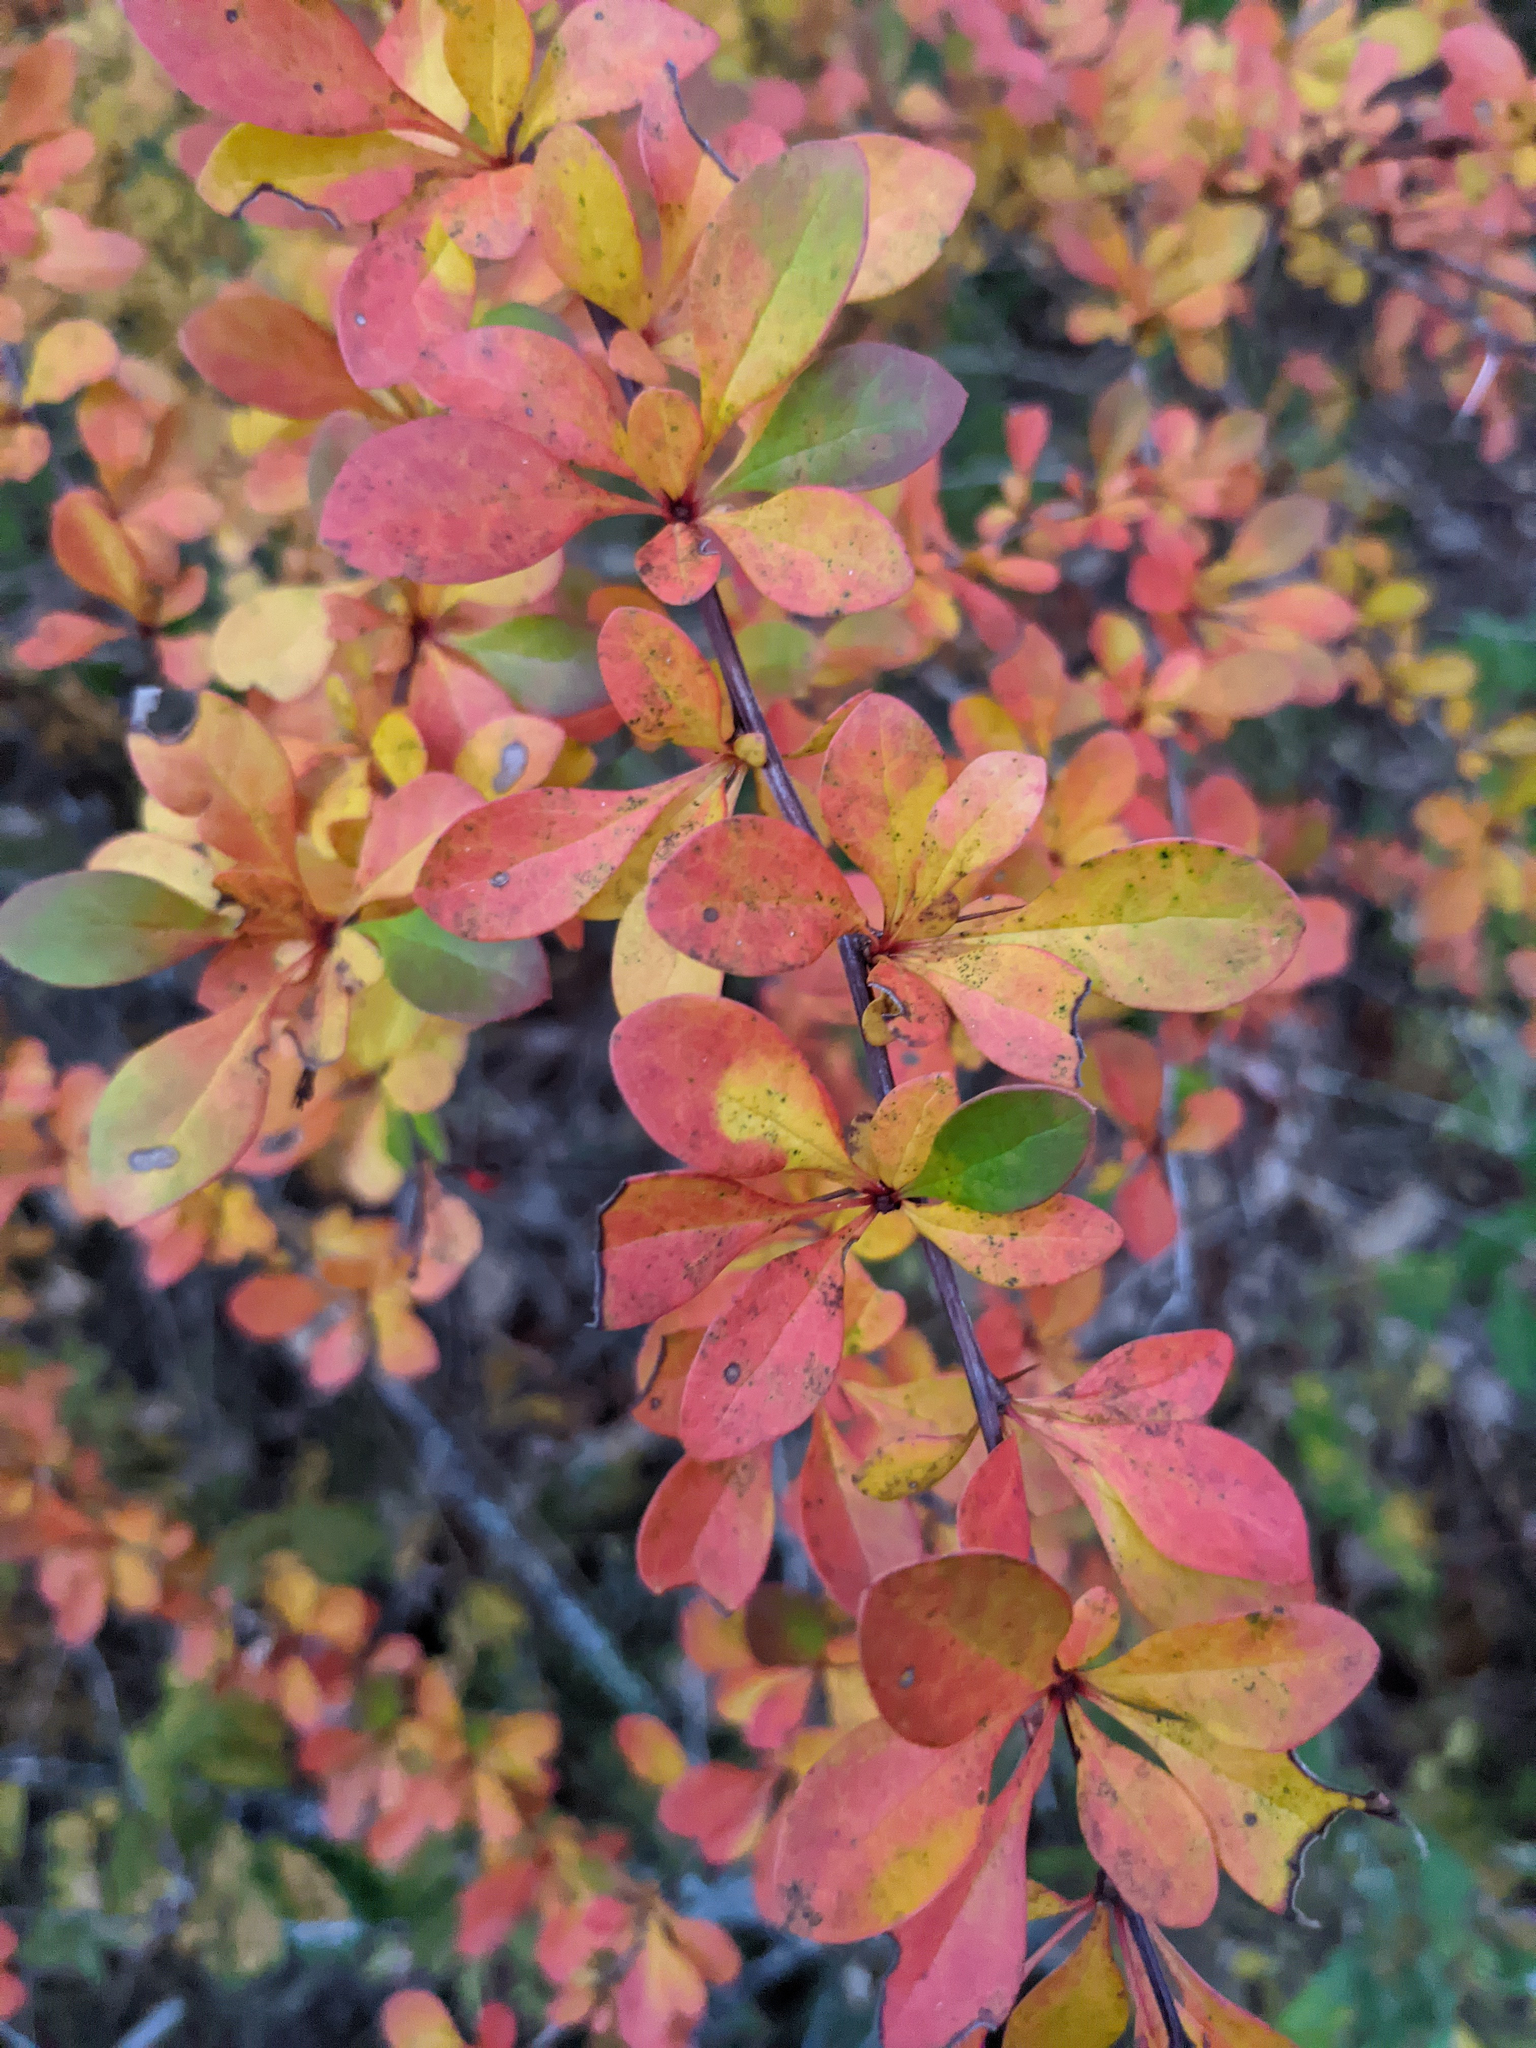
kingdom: Plantae
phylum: Tracheophyta
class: Magnoliopsida
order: Ranunculales
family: Berberidaceae
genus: Berberis
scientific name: Berberis thunbergii
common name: Japanese barberry
